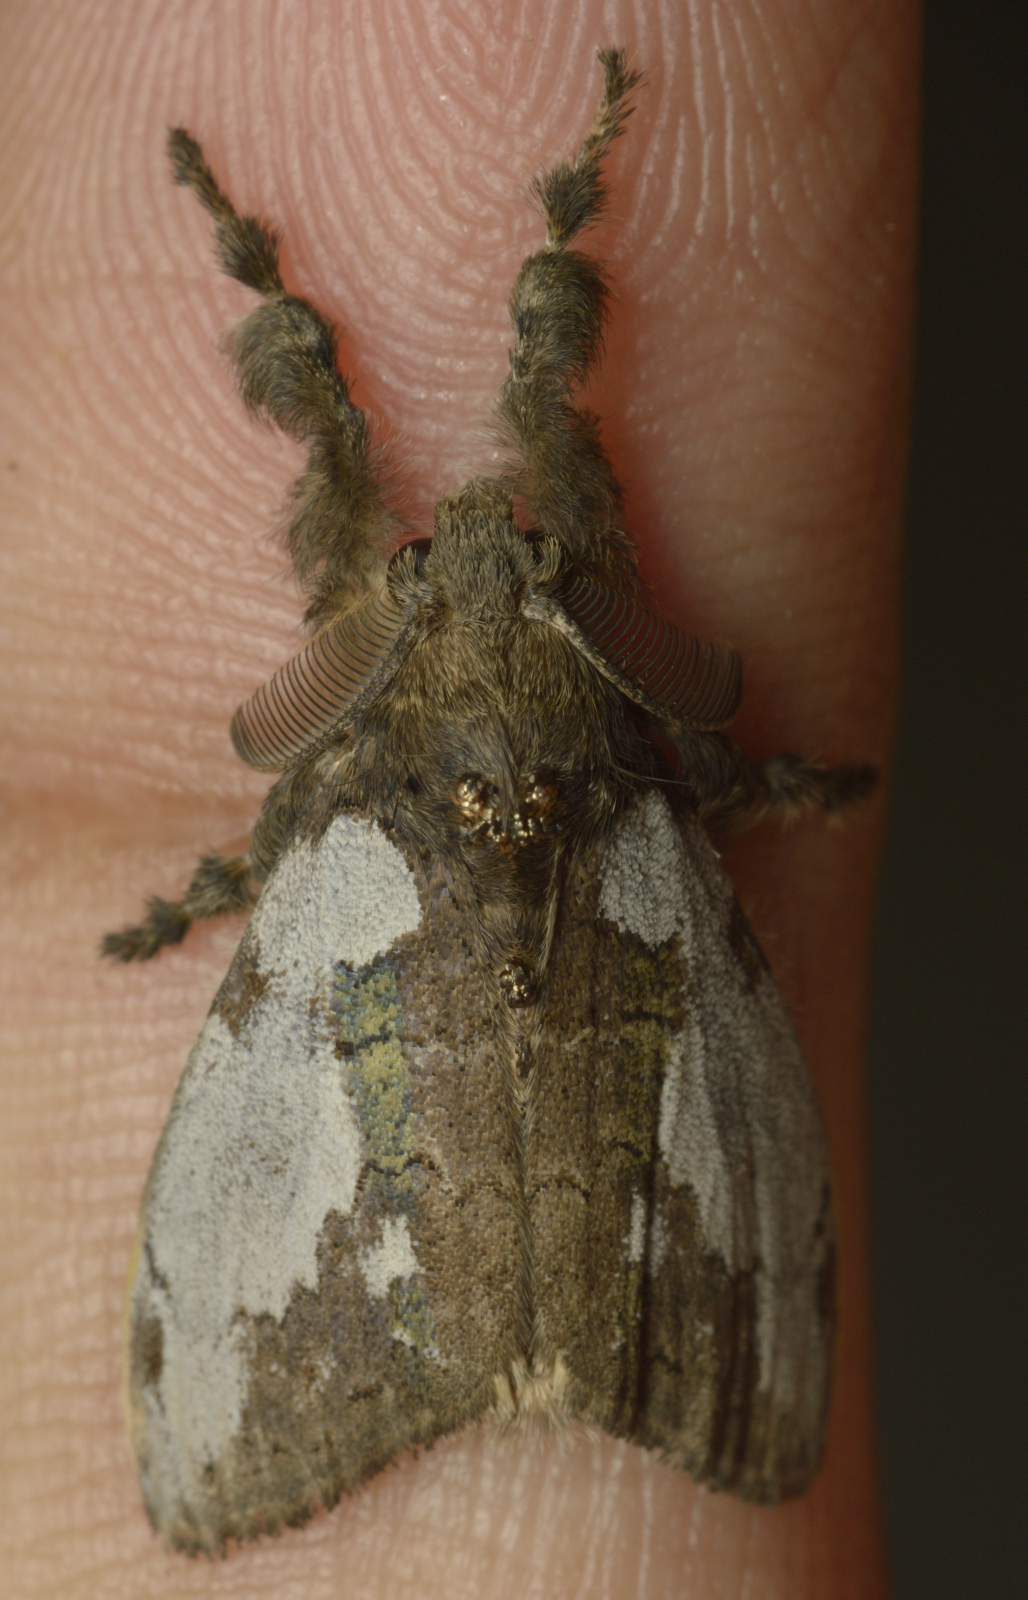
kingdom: Animalia
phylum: Arthropoda
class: Insecta
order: Lepidoptera
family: Erebidae
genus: Olene
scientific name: Olene mendosa
